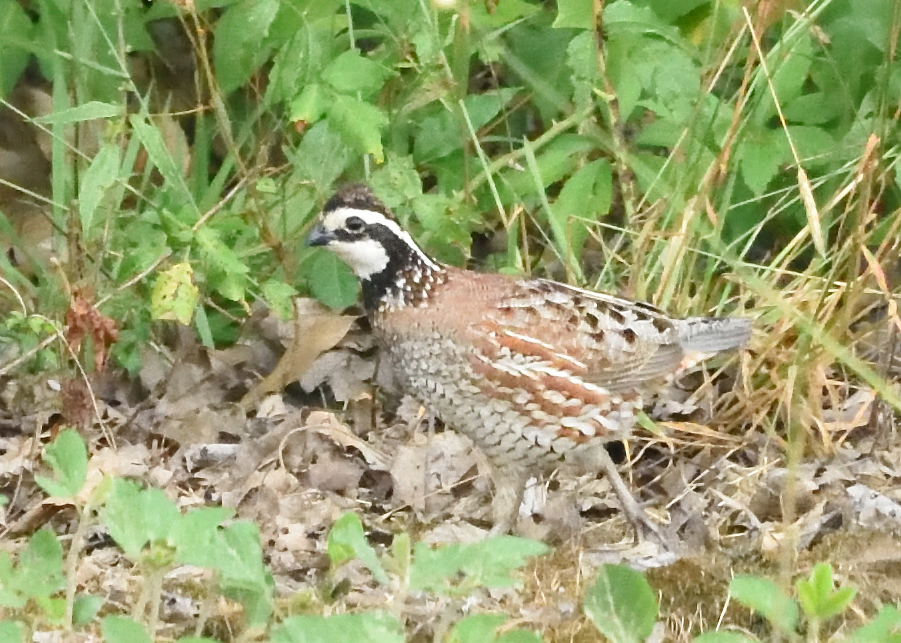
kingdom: Animalia
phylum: Chordata
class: Aves
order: Galliformes
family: Odontophoridae
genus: Colinus
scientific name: Colinus virginianus
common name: Northern bobwhite
